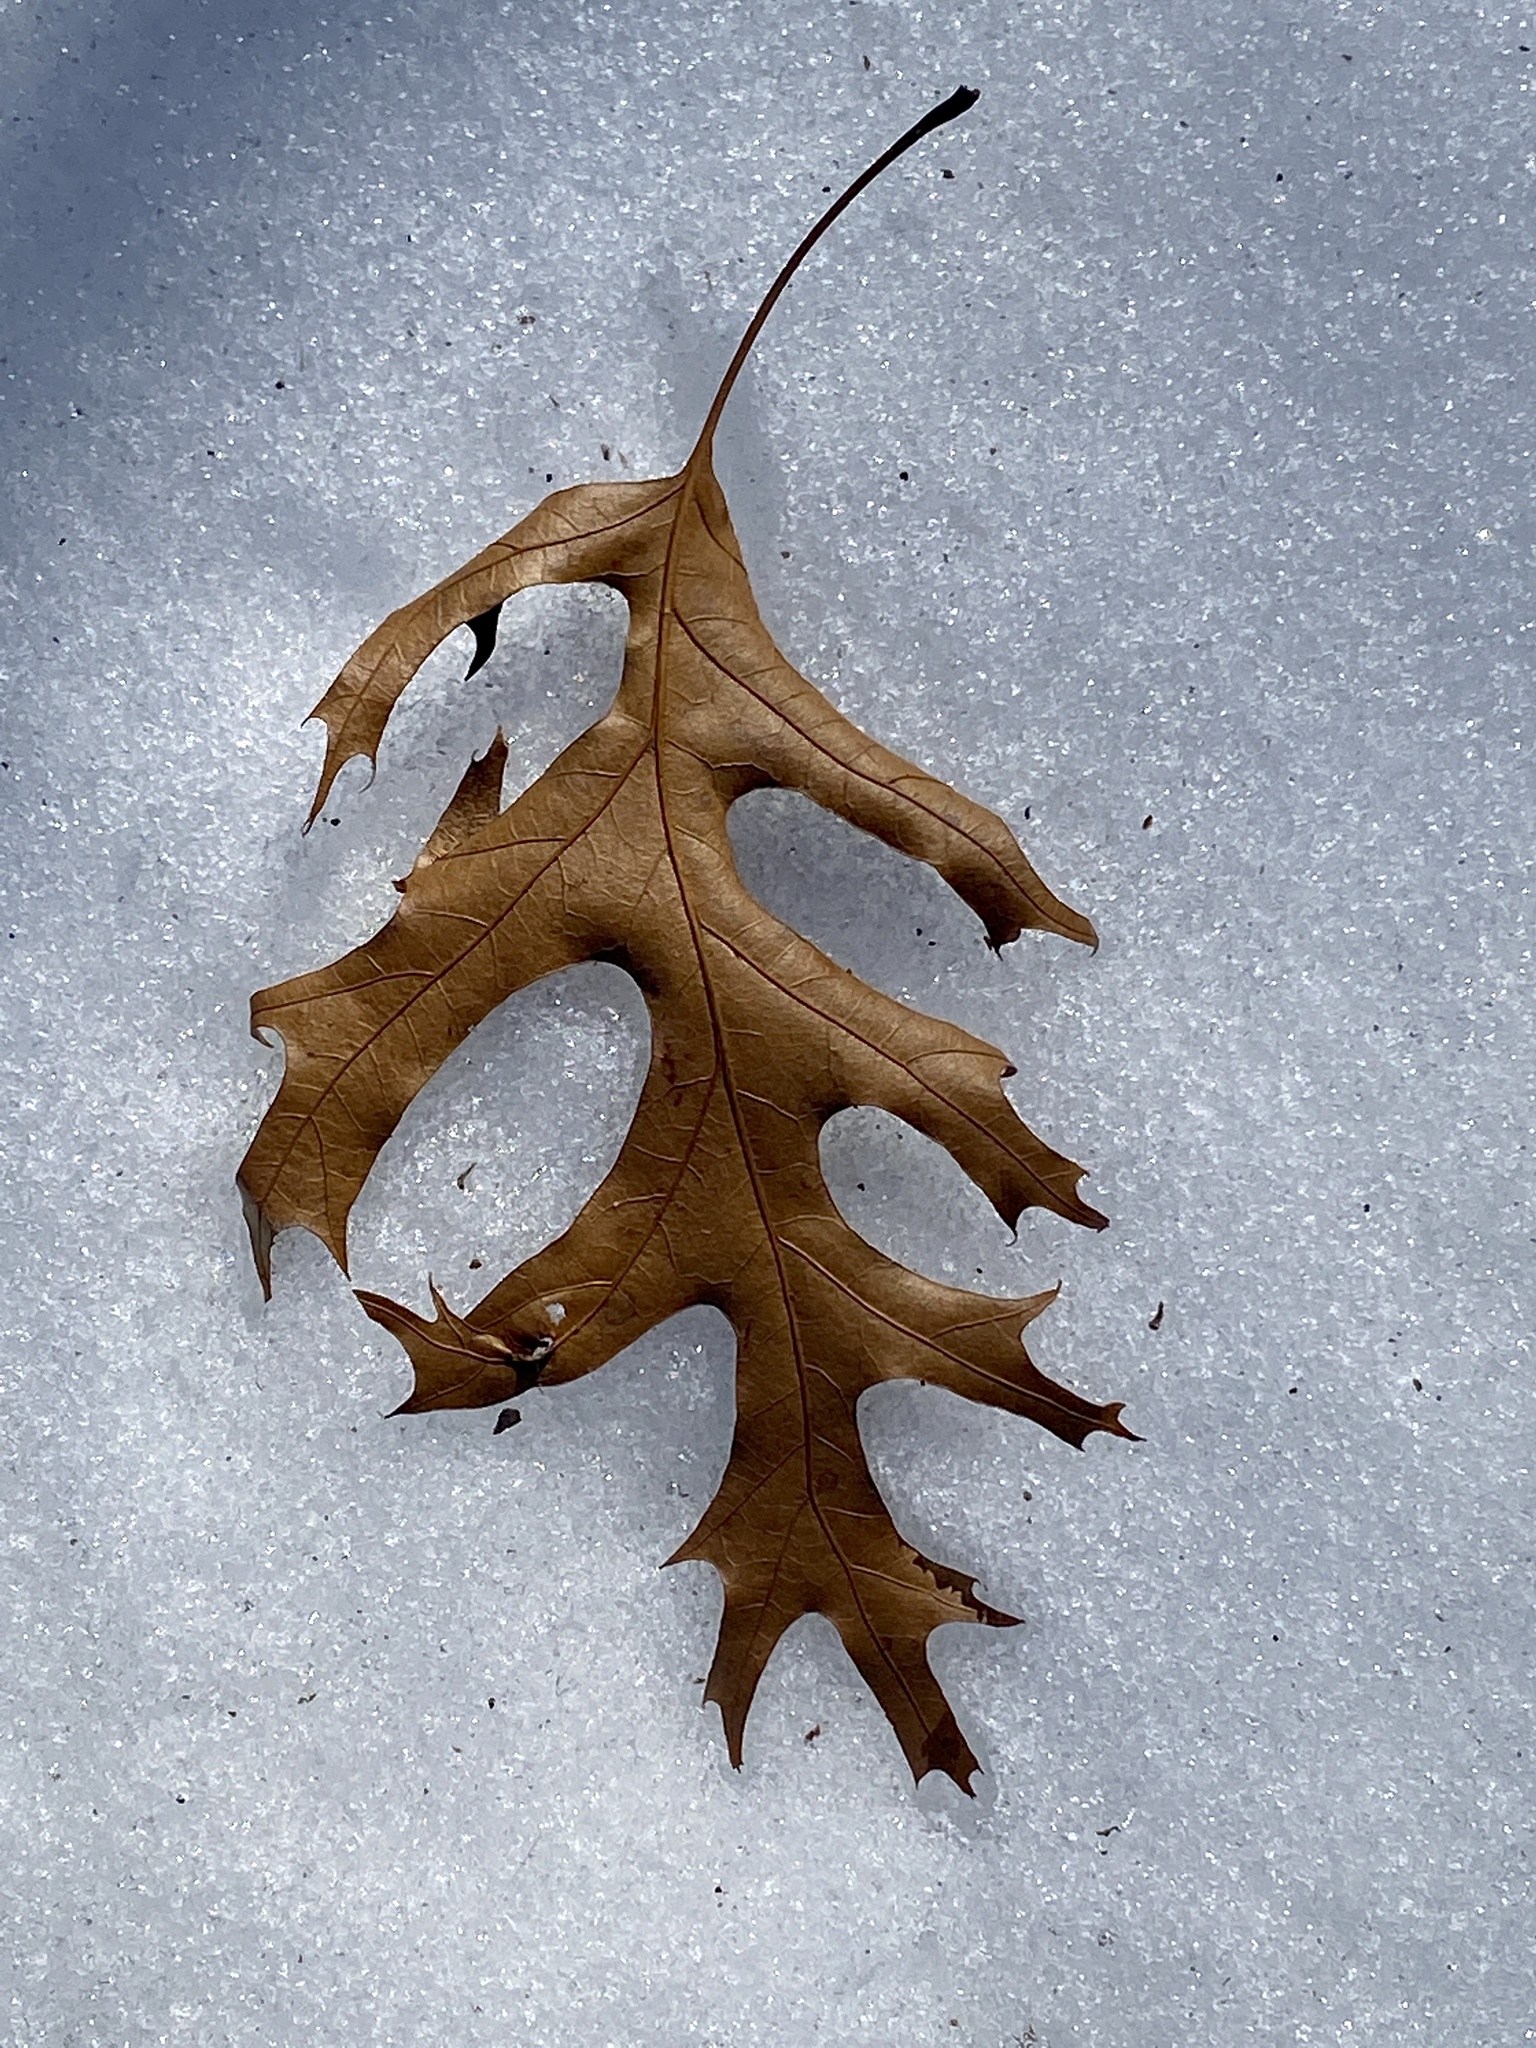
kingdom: Plantae
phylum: Tracheophyta
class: Magnoliopsida
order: Fagales
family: Fagaceae
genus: Quercus
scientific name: Quercus coccinea
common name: Scarlet oak
